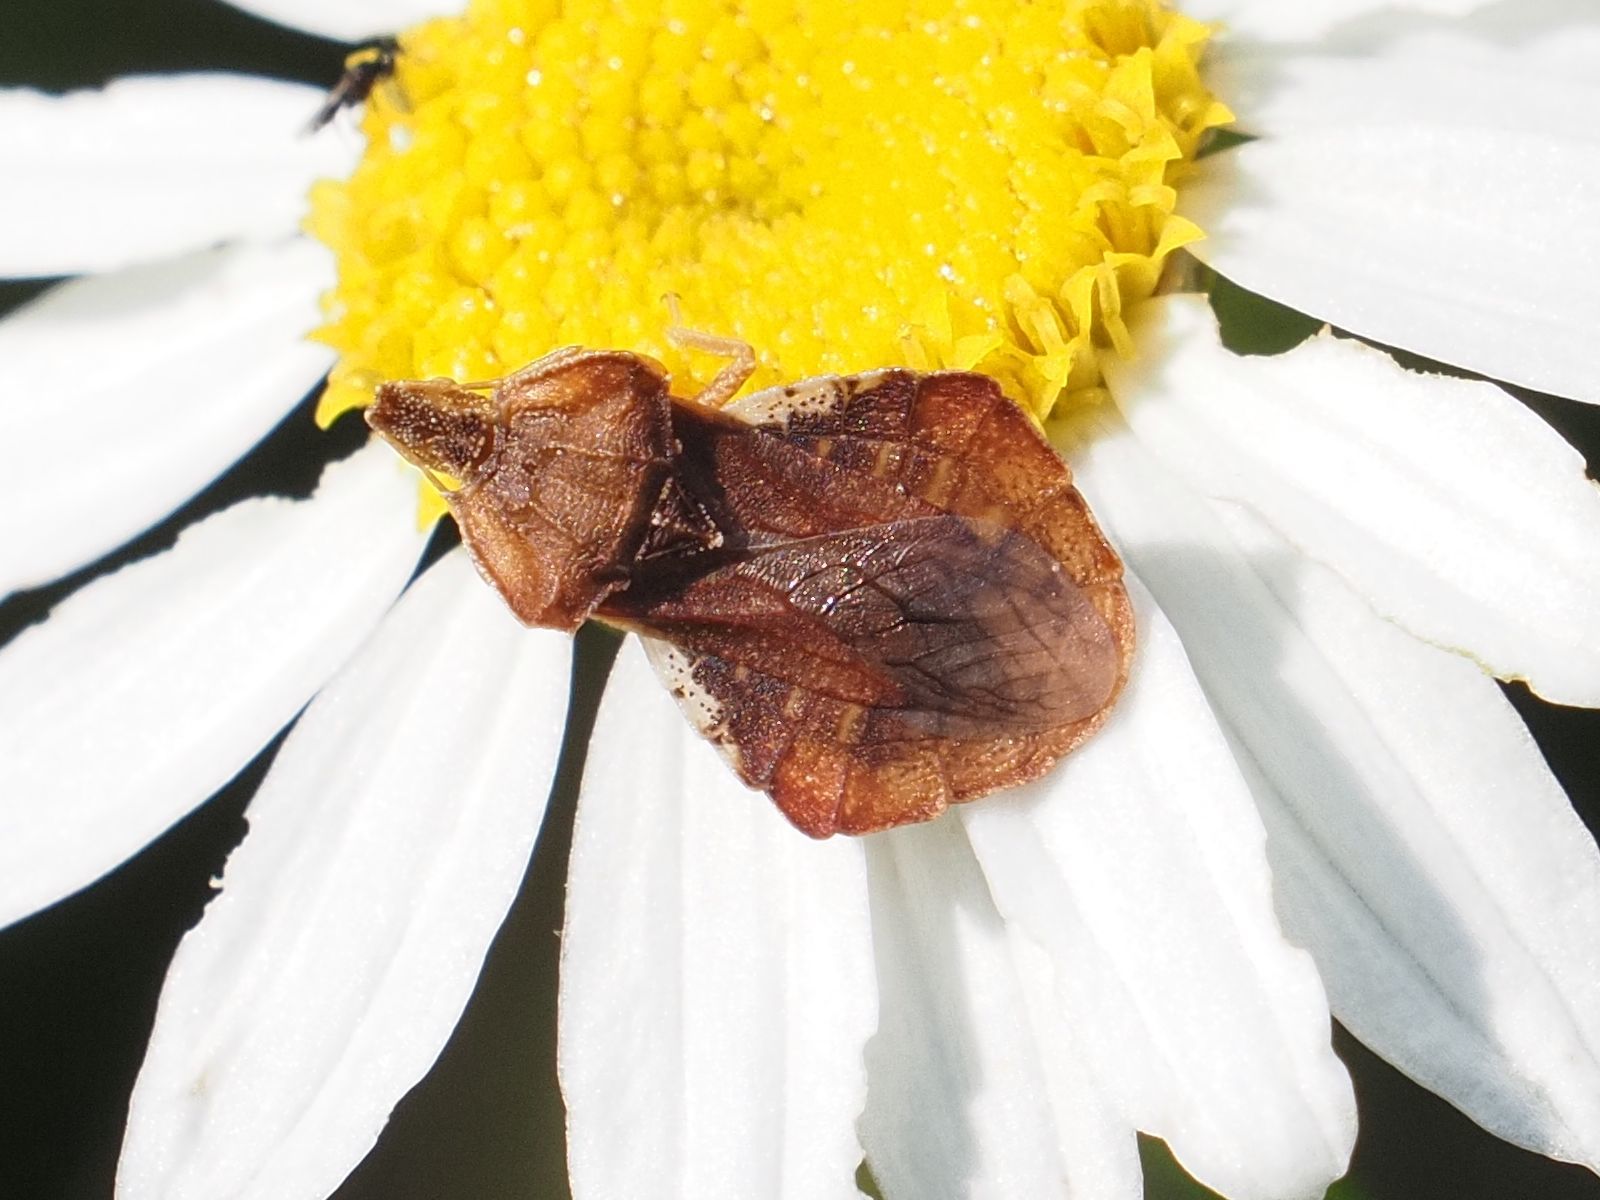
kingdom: Animalia
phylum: Arthropoda
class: Insecta
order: Hemiptera
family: Reduviidae
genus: Phymata
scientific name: Phymata crassipes
